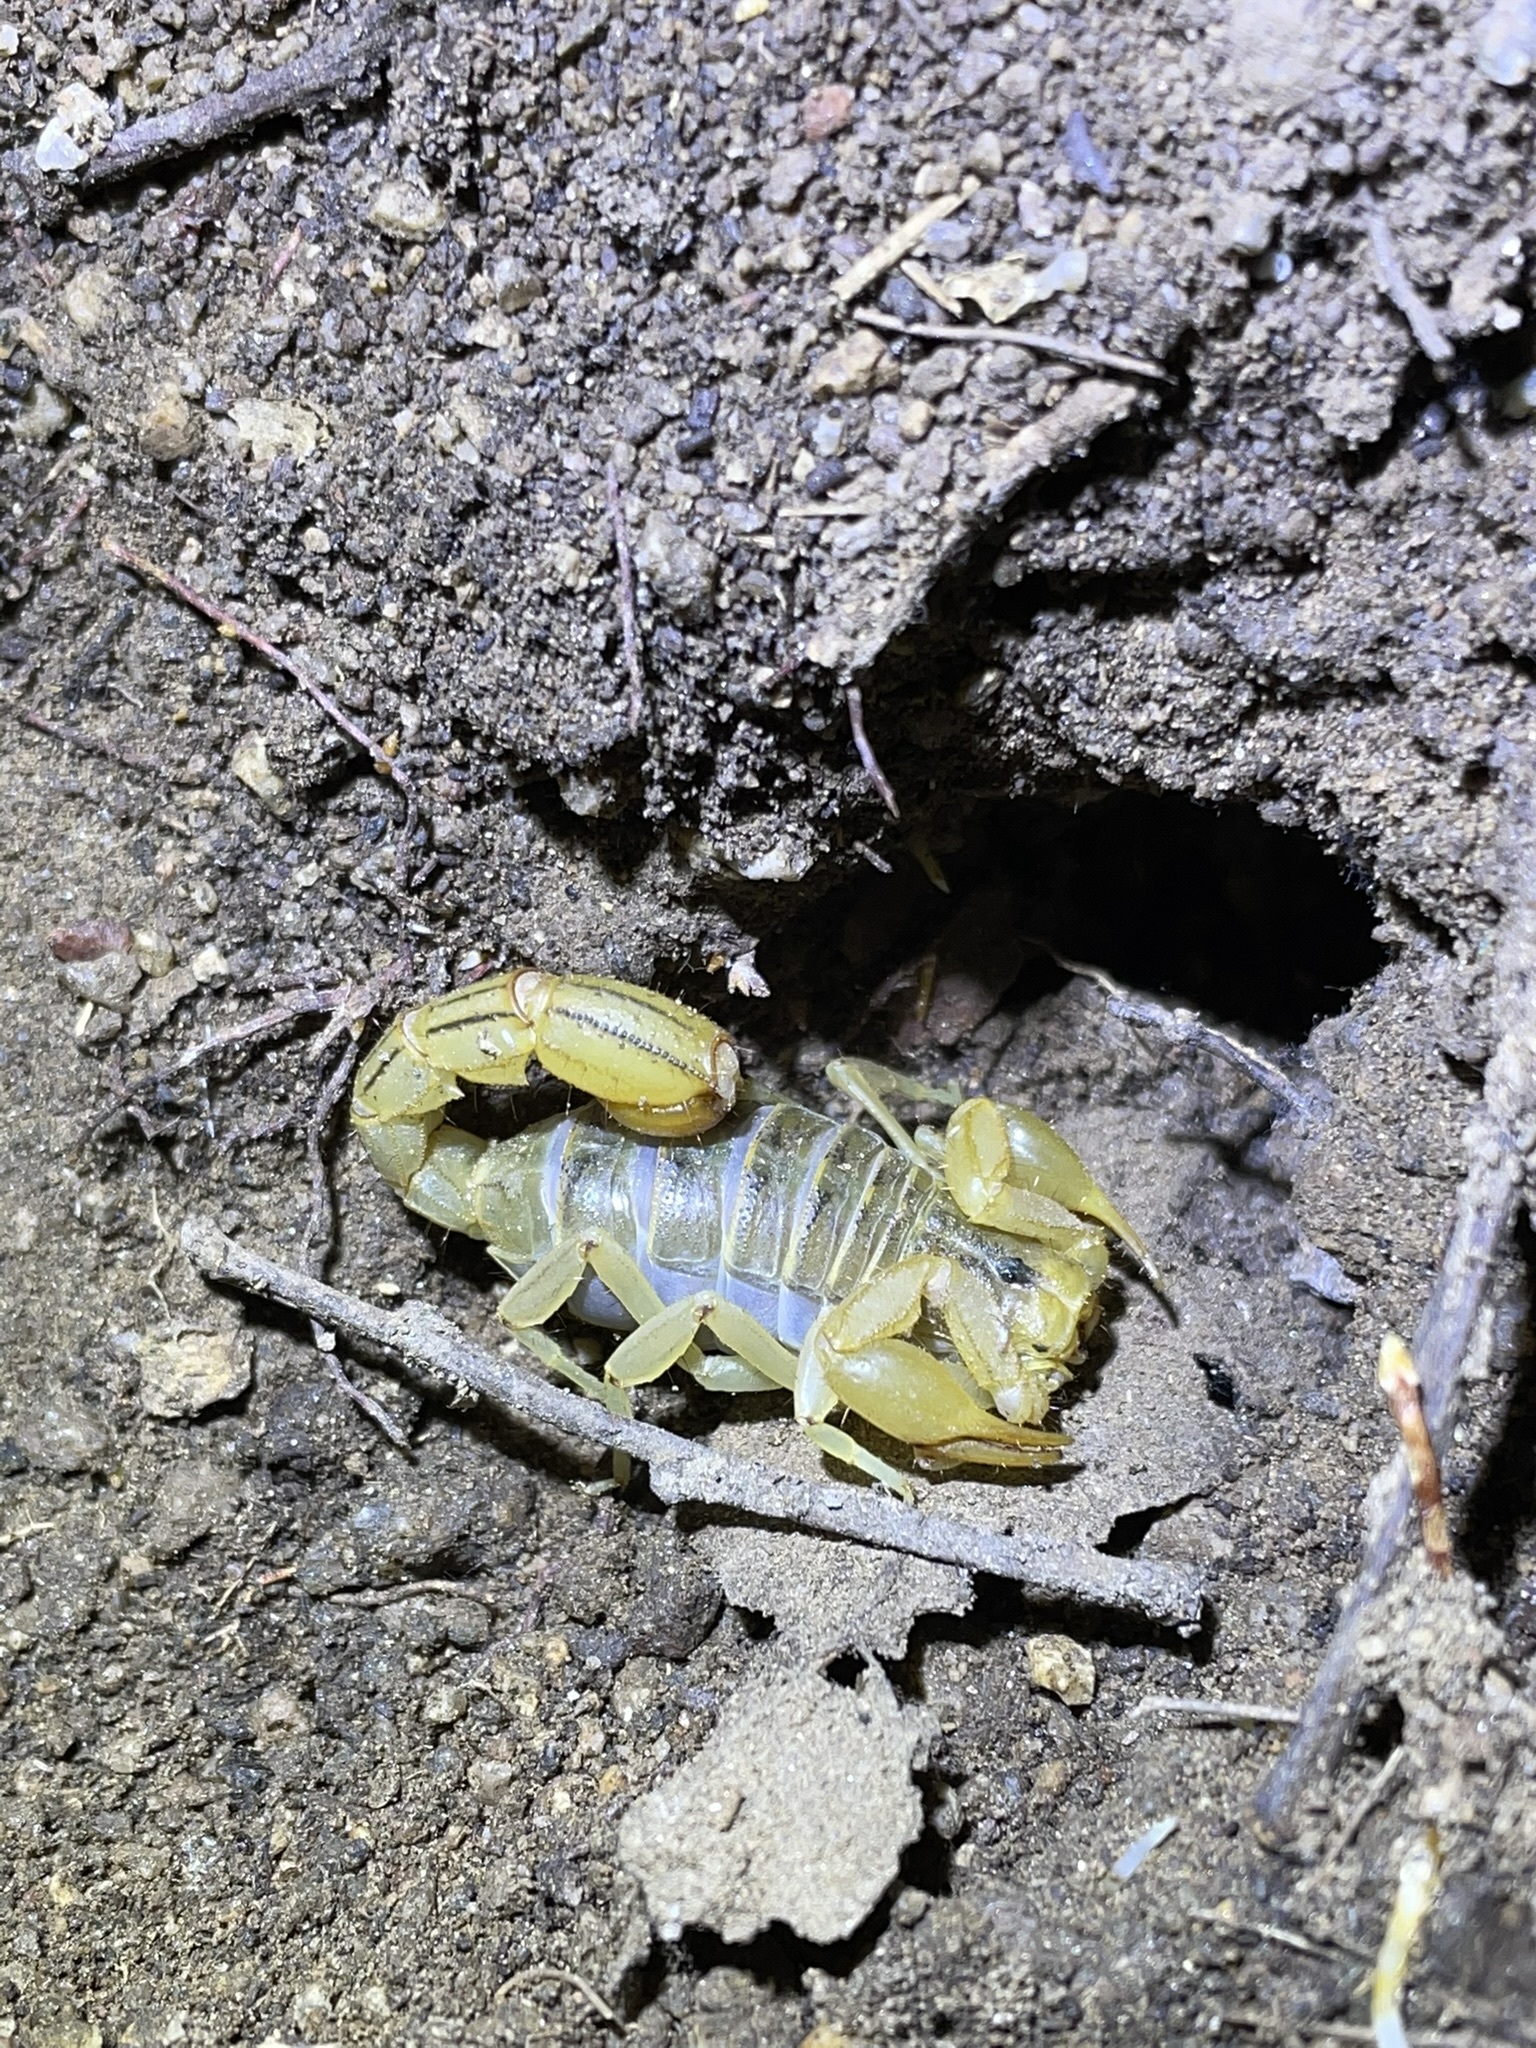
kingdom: Animalia
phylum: Arthropoda
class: Arachnida
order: Scorpiones
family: Vaejovidae
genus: Paravaejovis
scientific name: Paravaejovis spinigerus
